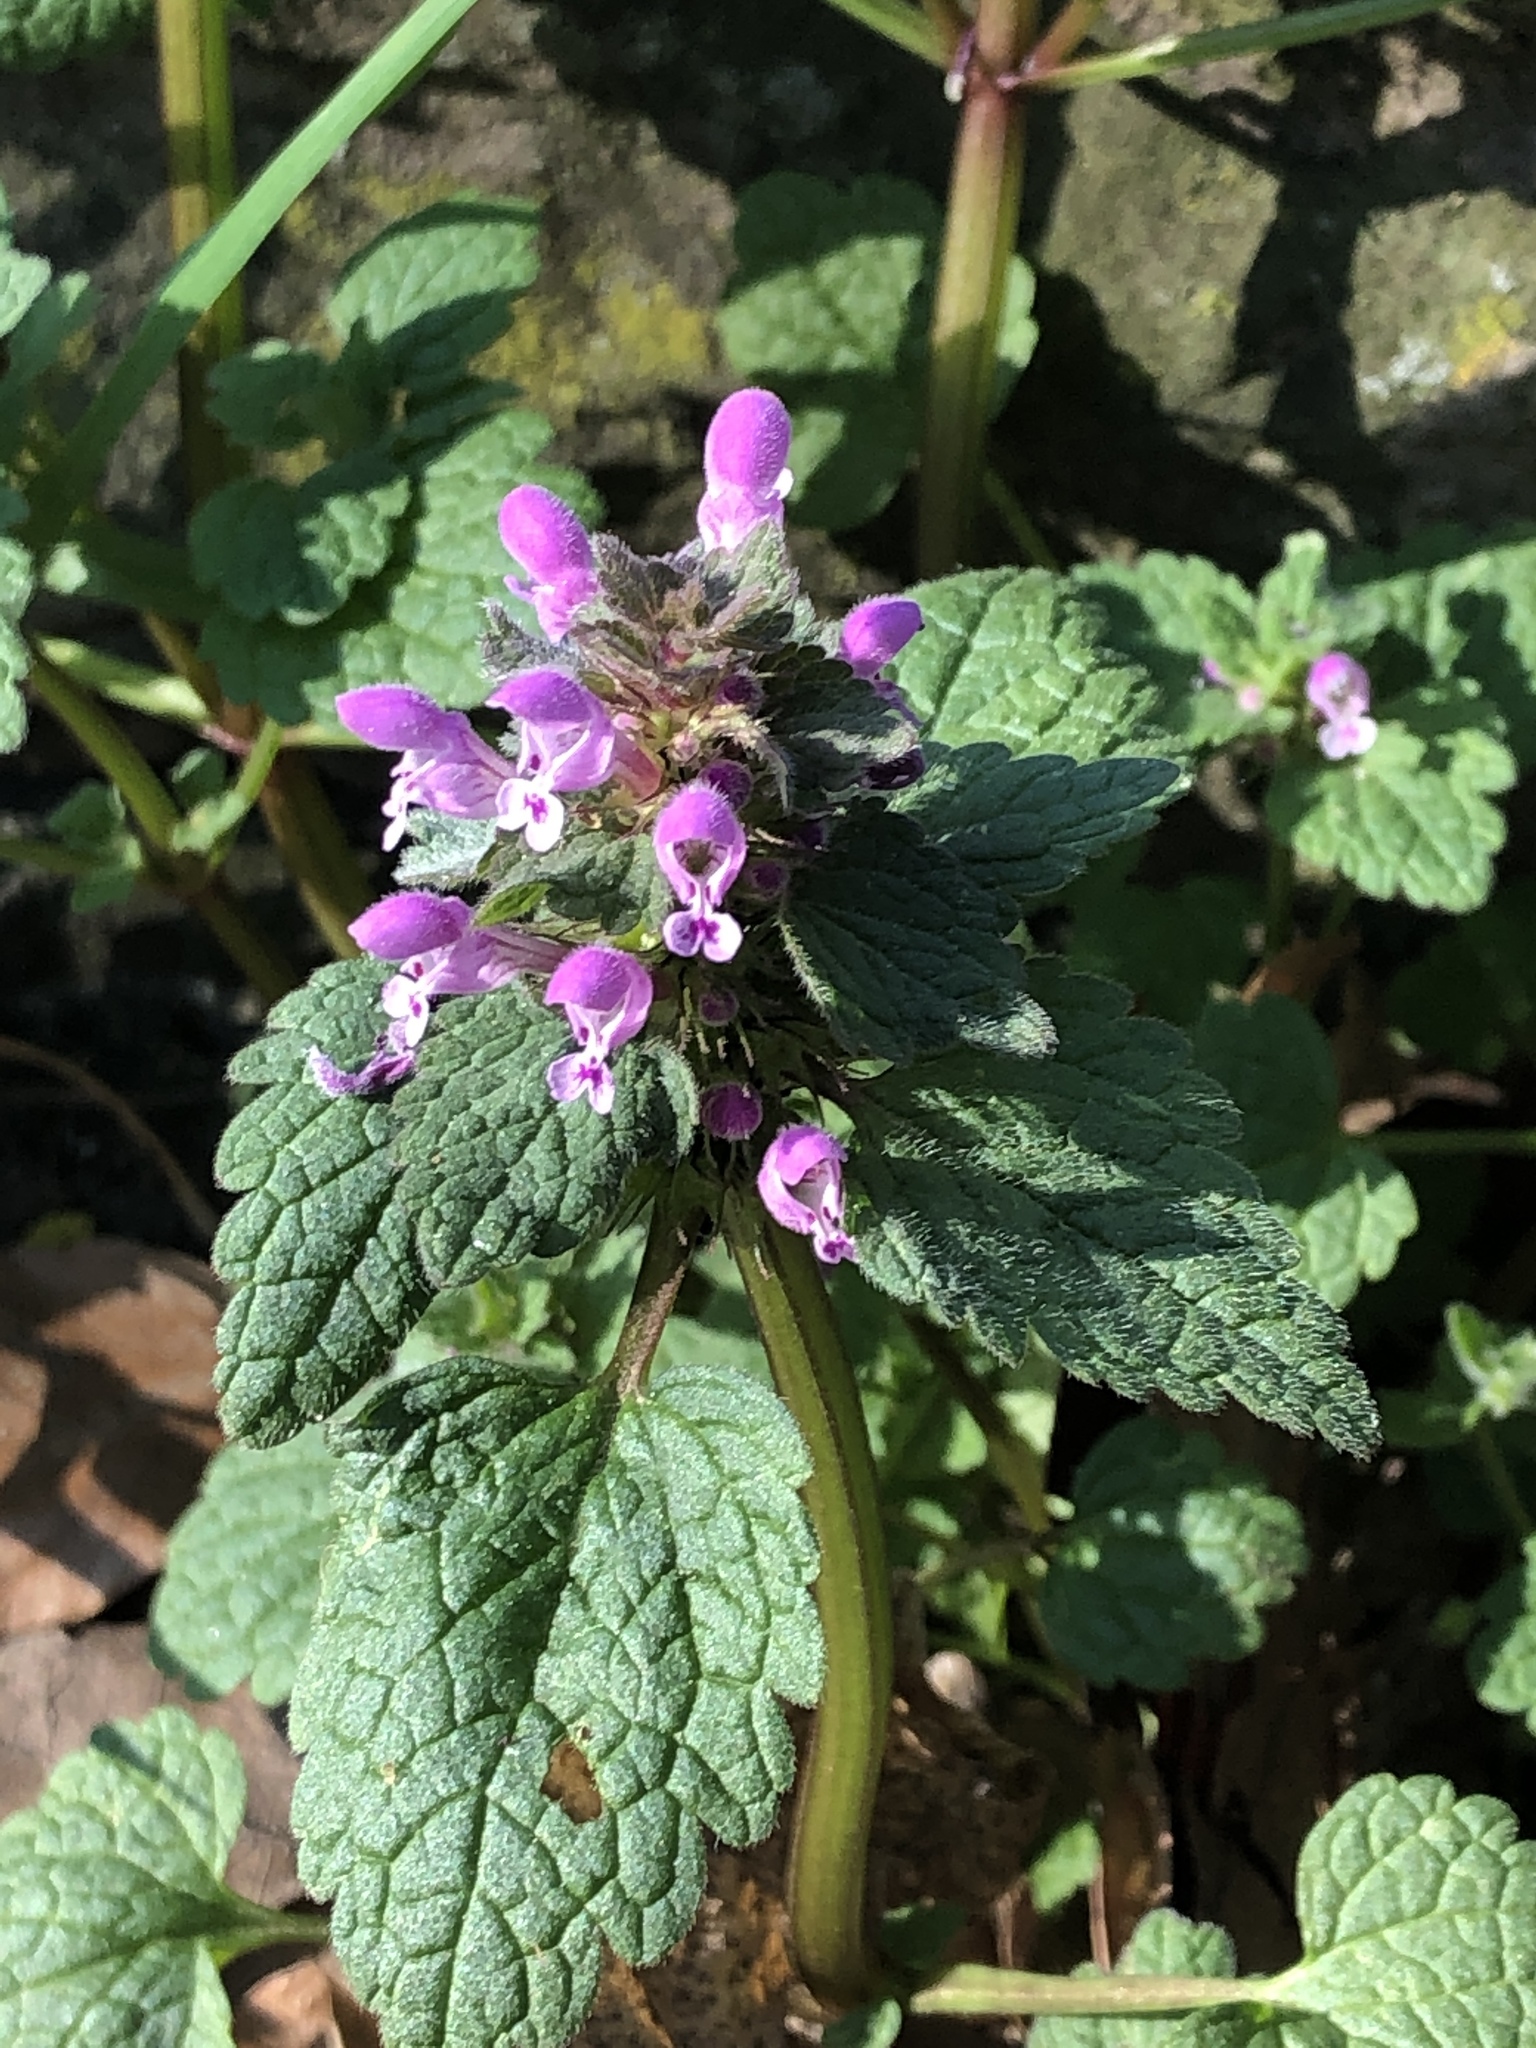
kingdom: Plantae
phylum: Tracheophyta
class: Magnoliopsida
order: Lamiales
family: Lamiaceae
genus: Lamium
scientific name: Lamium purpureum
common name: Red dead-nettle
